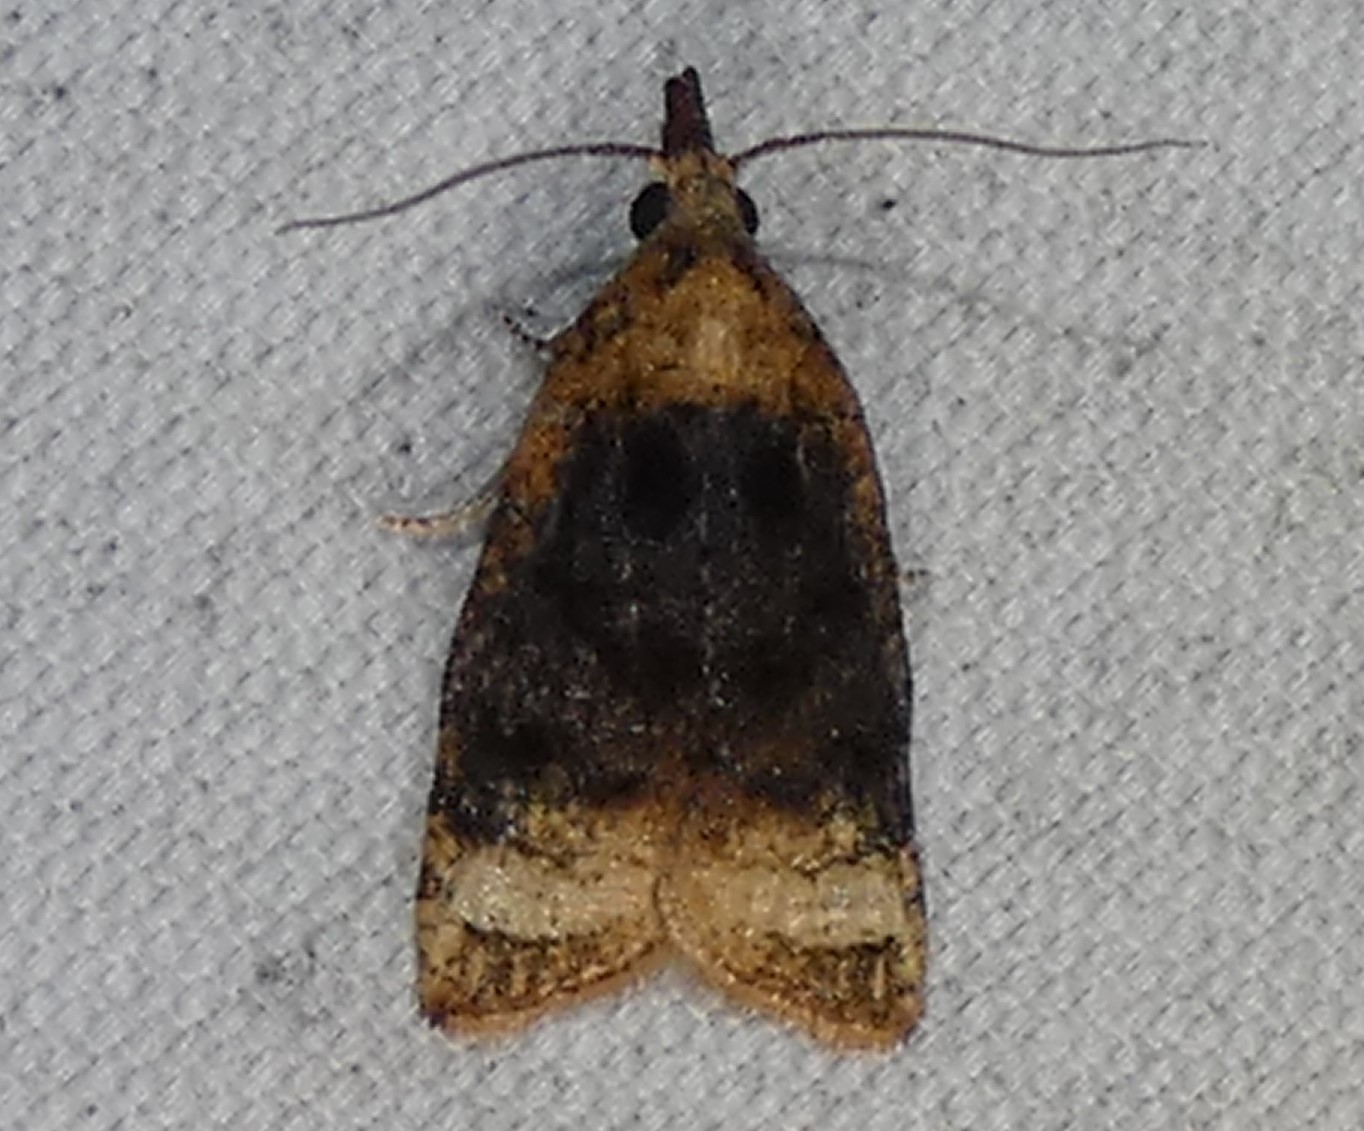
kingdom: Animalia
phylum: Arthropoda
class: Insecta
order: Lepidoptera
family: Tortricidae
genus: Platynota
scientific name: Platynota flavedana
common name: Black-shaded platynota moth
